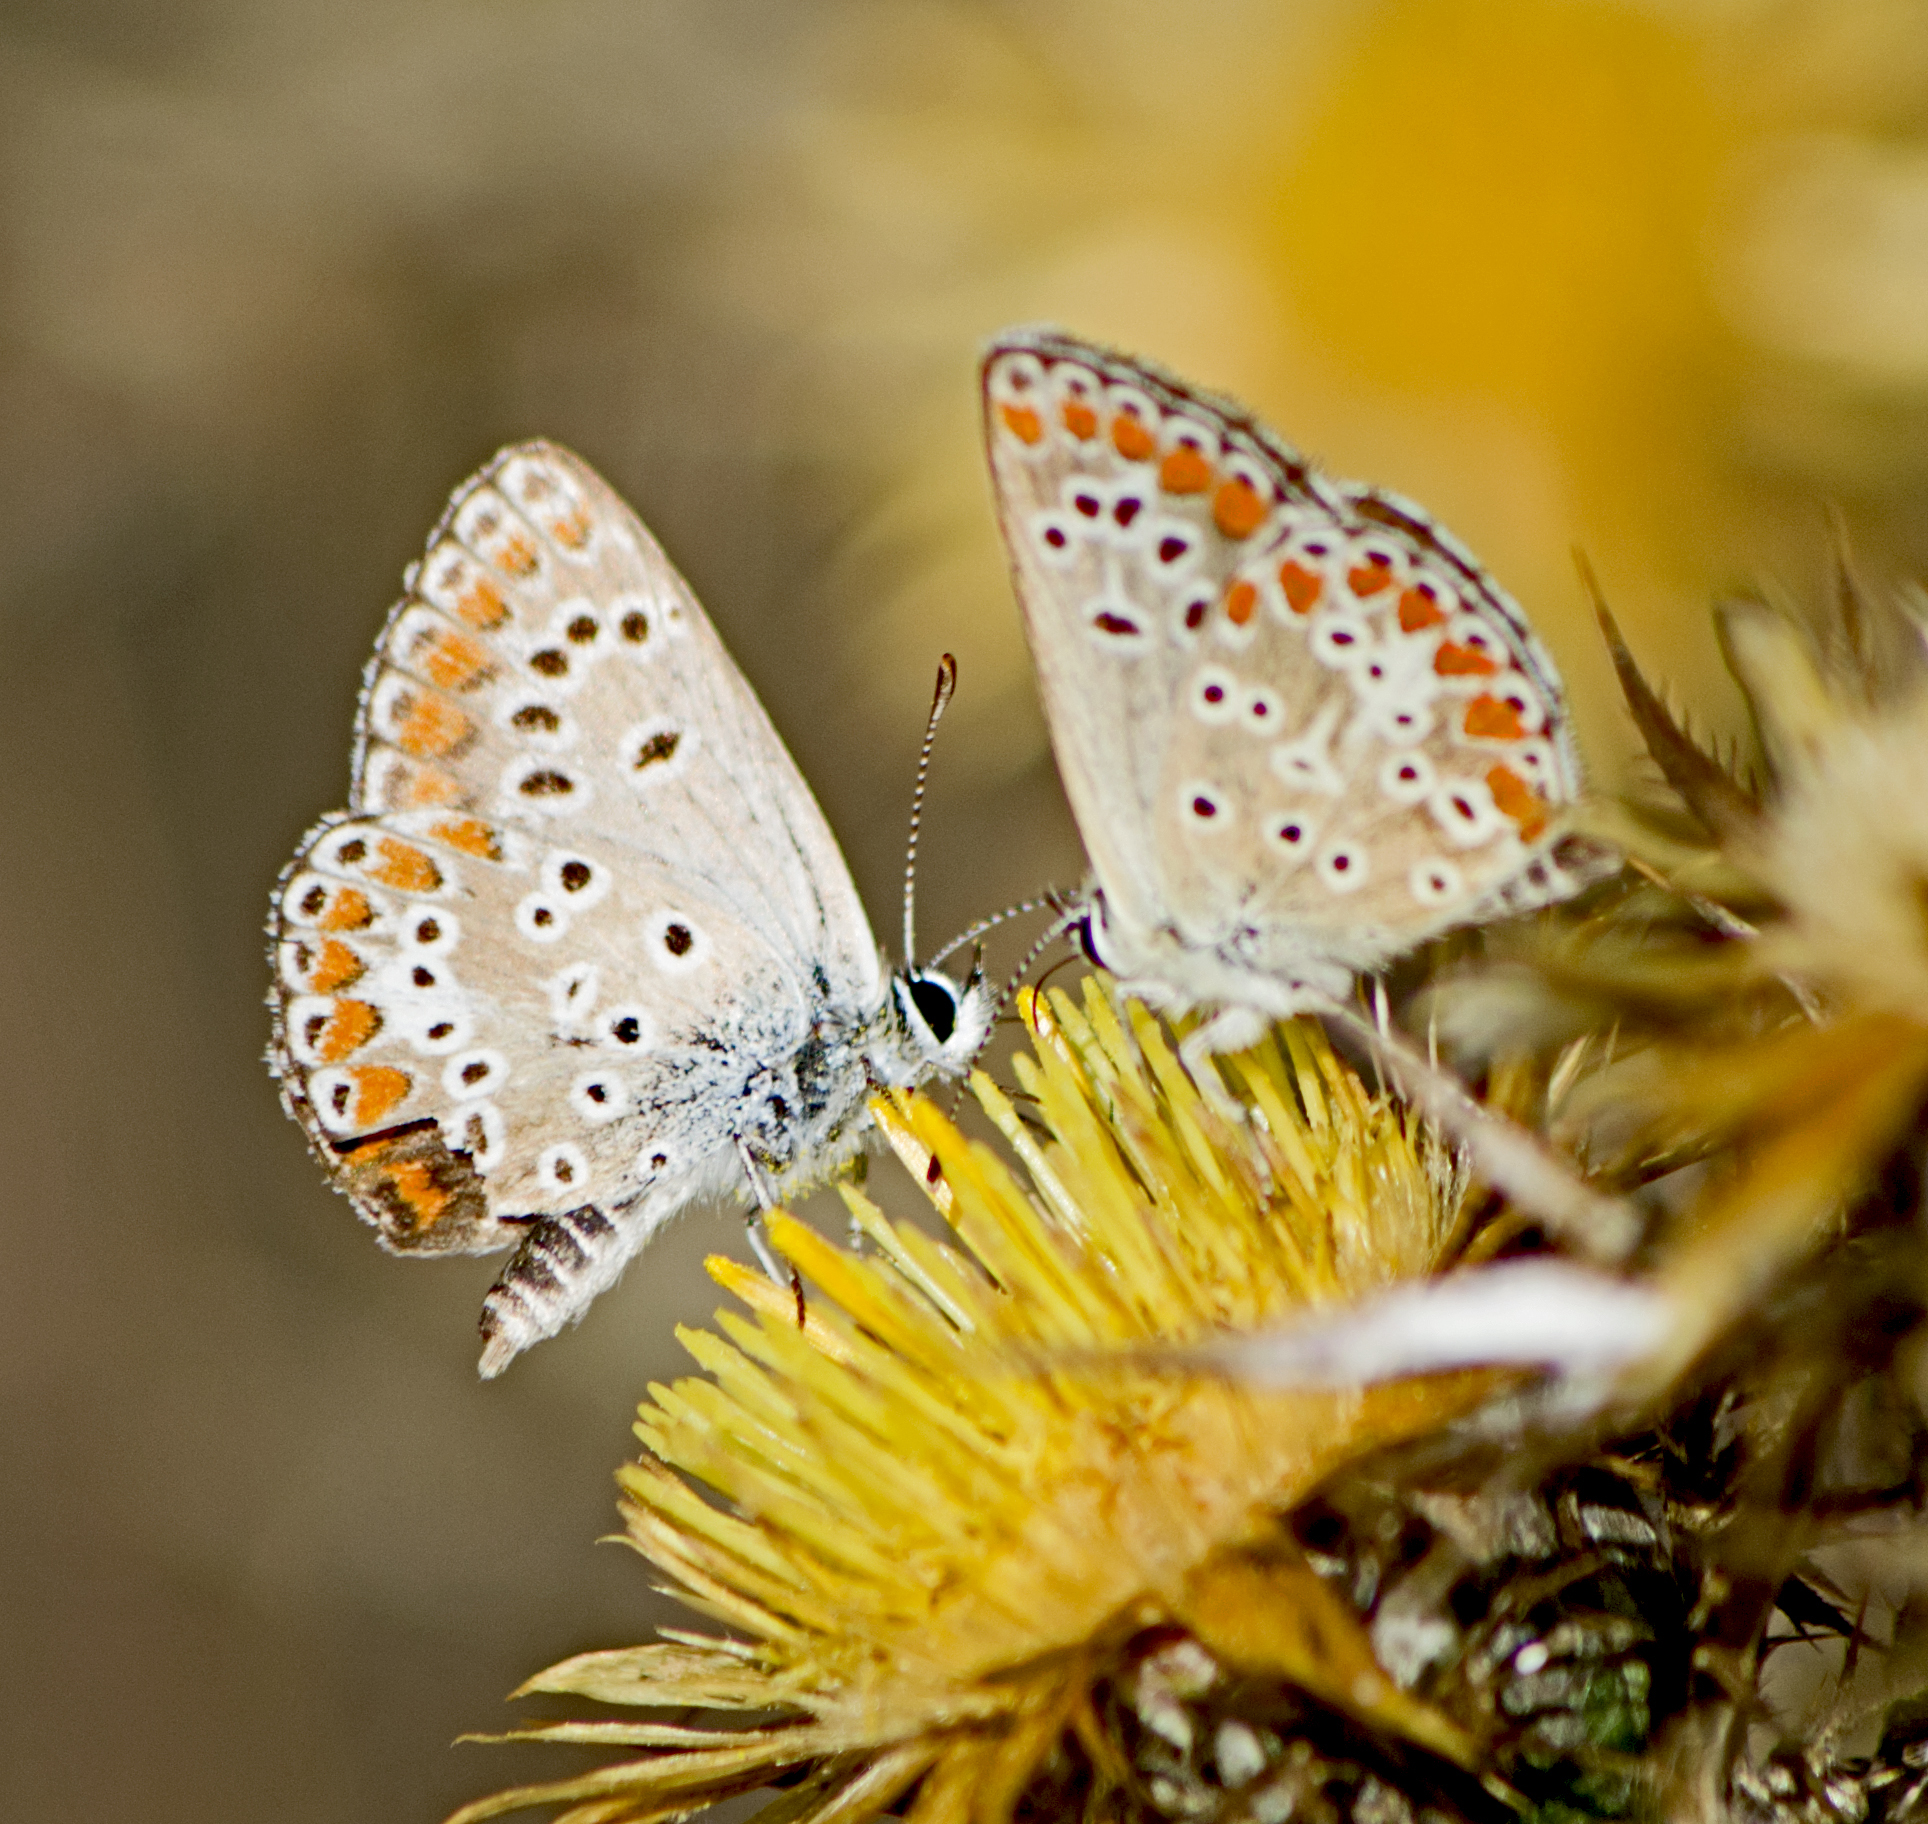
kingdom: Animalia
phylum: Arthropoda
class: Insecta
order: Lepidoptera
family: Lycaenidae
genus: Aricia
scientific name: Aricia agestis
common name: Brown argus
